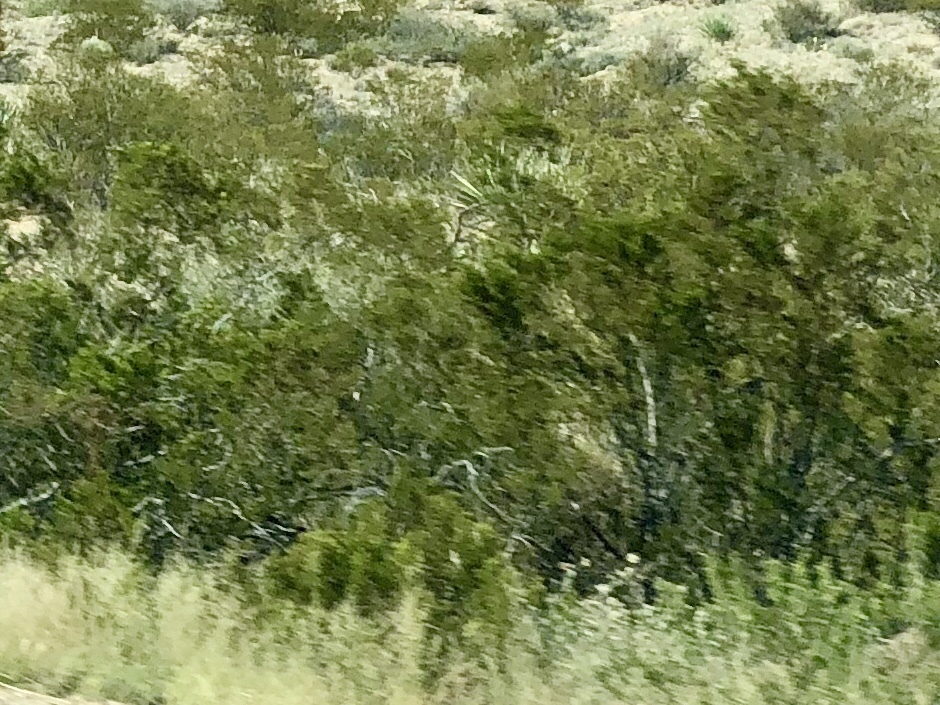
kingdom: Plantae
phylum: Tracheophyta
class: Magnoliopsida
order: Zygophyllales
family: Zygophyllaceae
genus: Larrea
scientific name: Larrea tridentata
